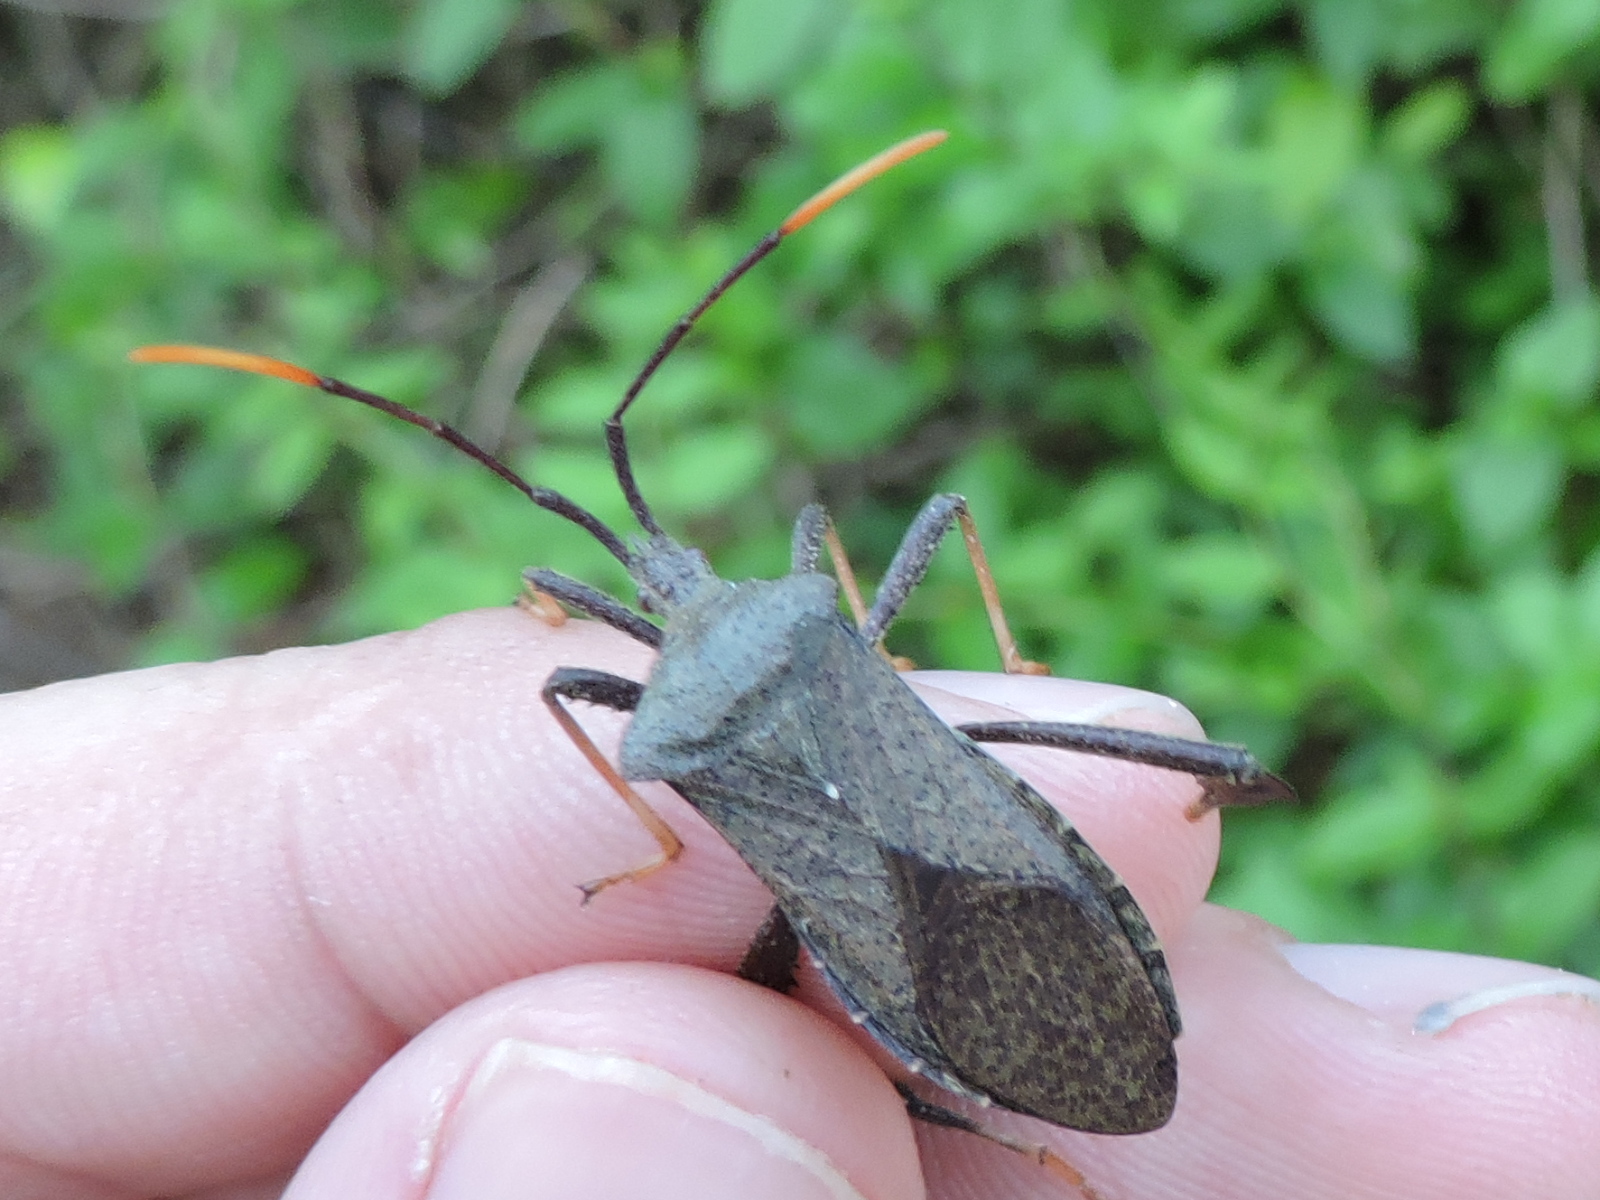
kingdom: Animalia
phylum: Arthropoda
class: Insecta
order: Hemiptera
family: Coreidae
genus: Acanthocephala
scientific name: Acanthocephala terminalis
